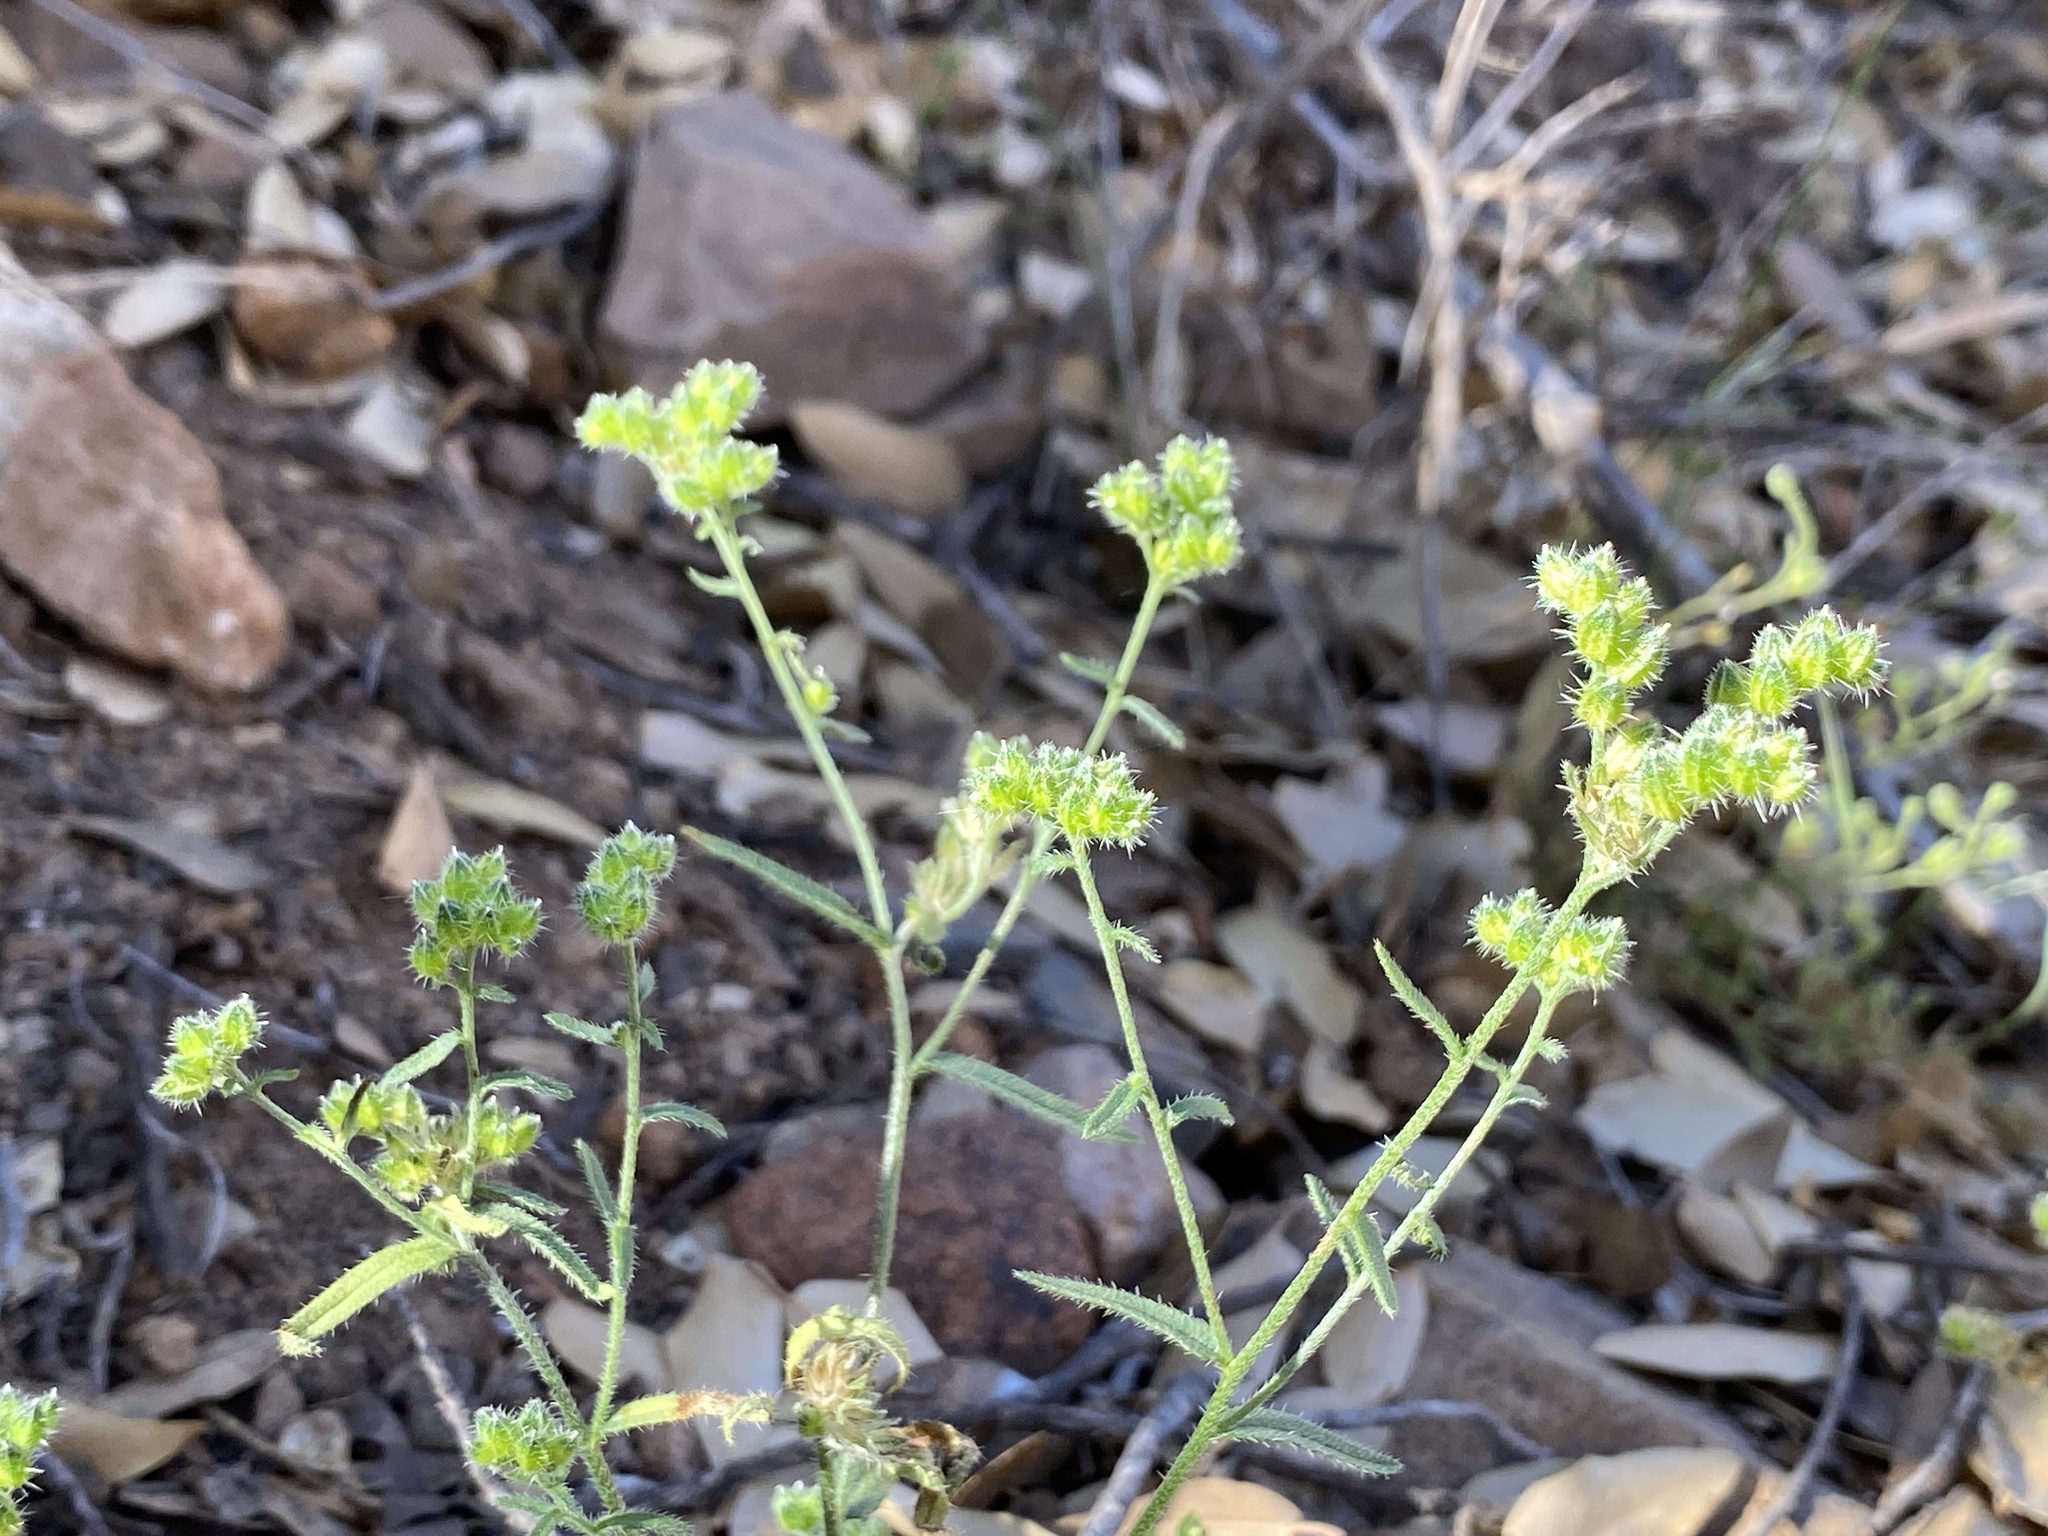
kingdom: Plantae
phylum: Tracheophyta
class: Magnoliopsida
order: Boraginales
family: Boraginaceae
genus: Cryptantha
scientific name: Cryptantha pterocarya
